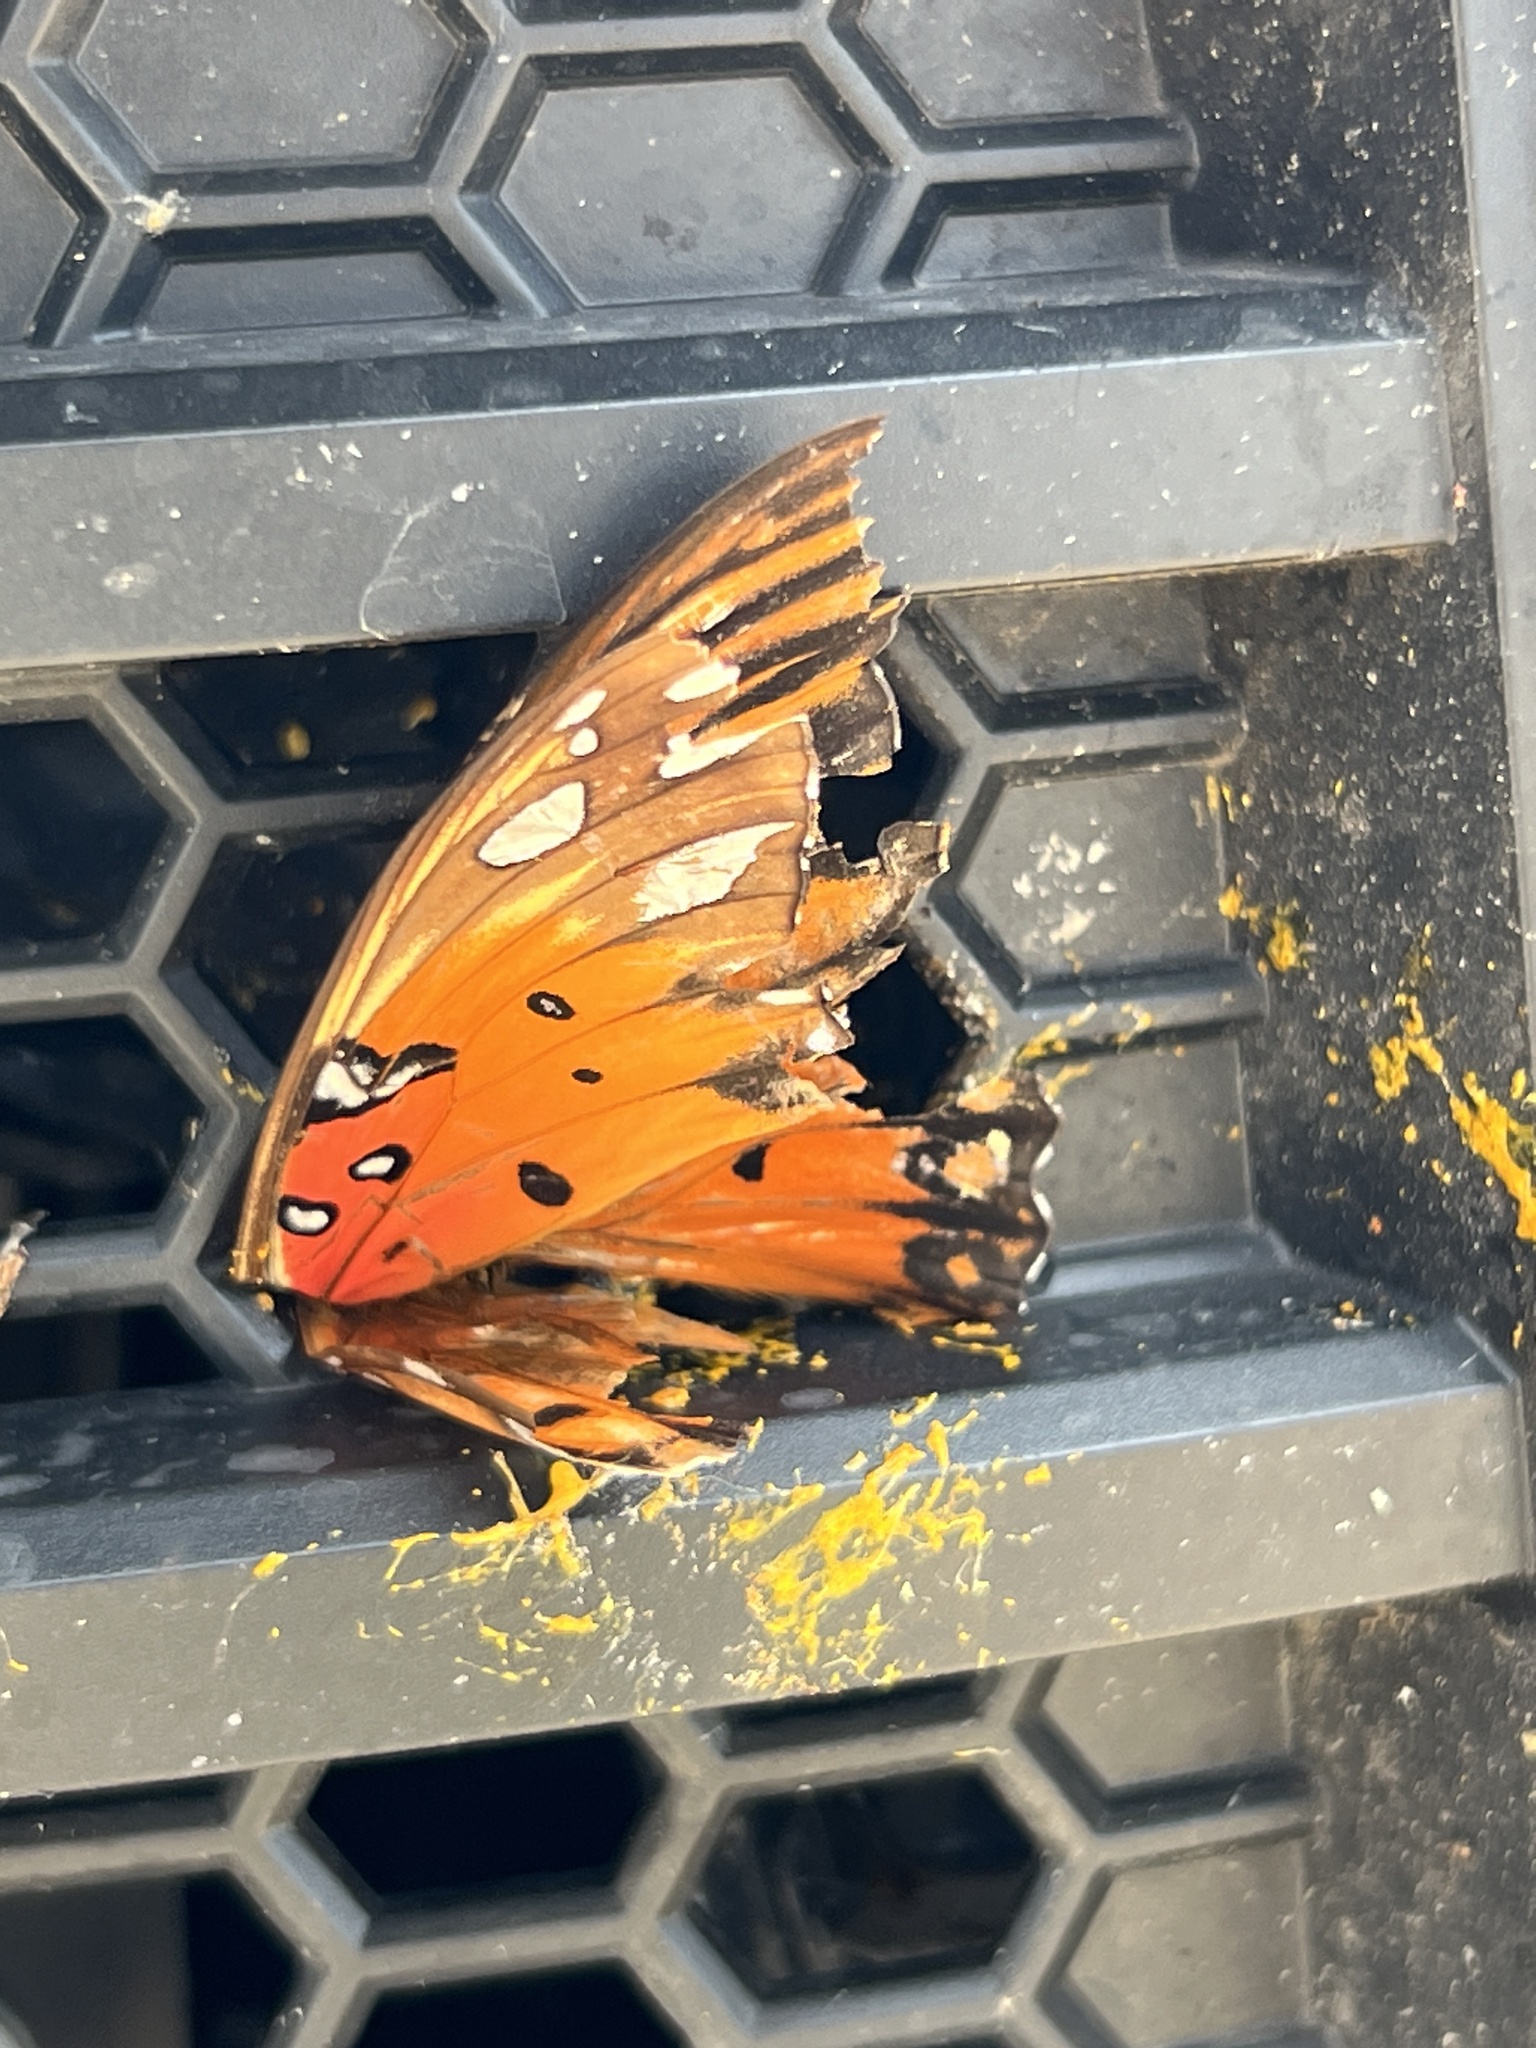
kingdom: Animalia
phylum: Arthropoda
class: Insecta
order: Lepidoptera
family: Nymphalidae
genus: Dione
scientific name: Dione vanillae
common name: Gulf fritillary
